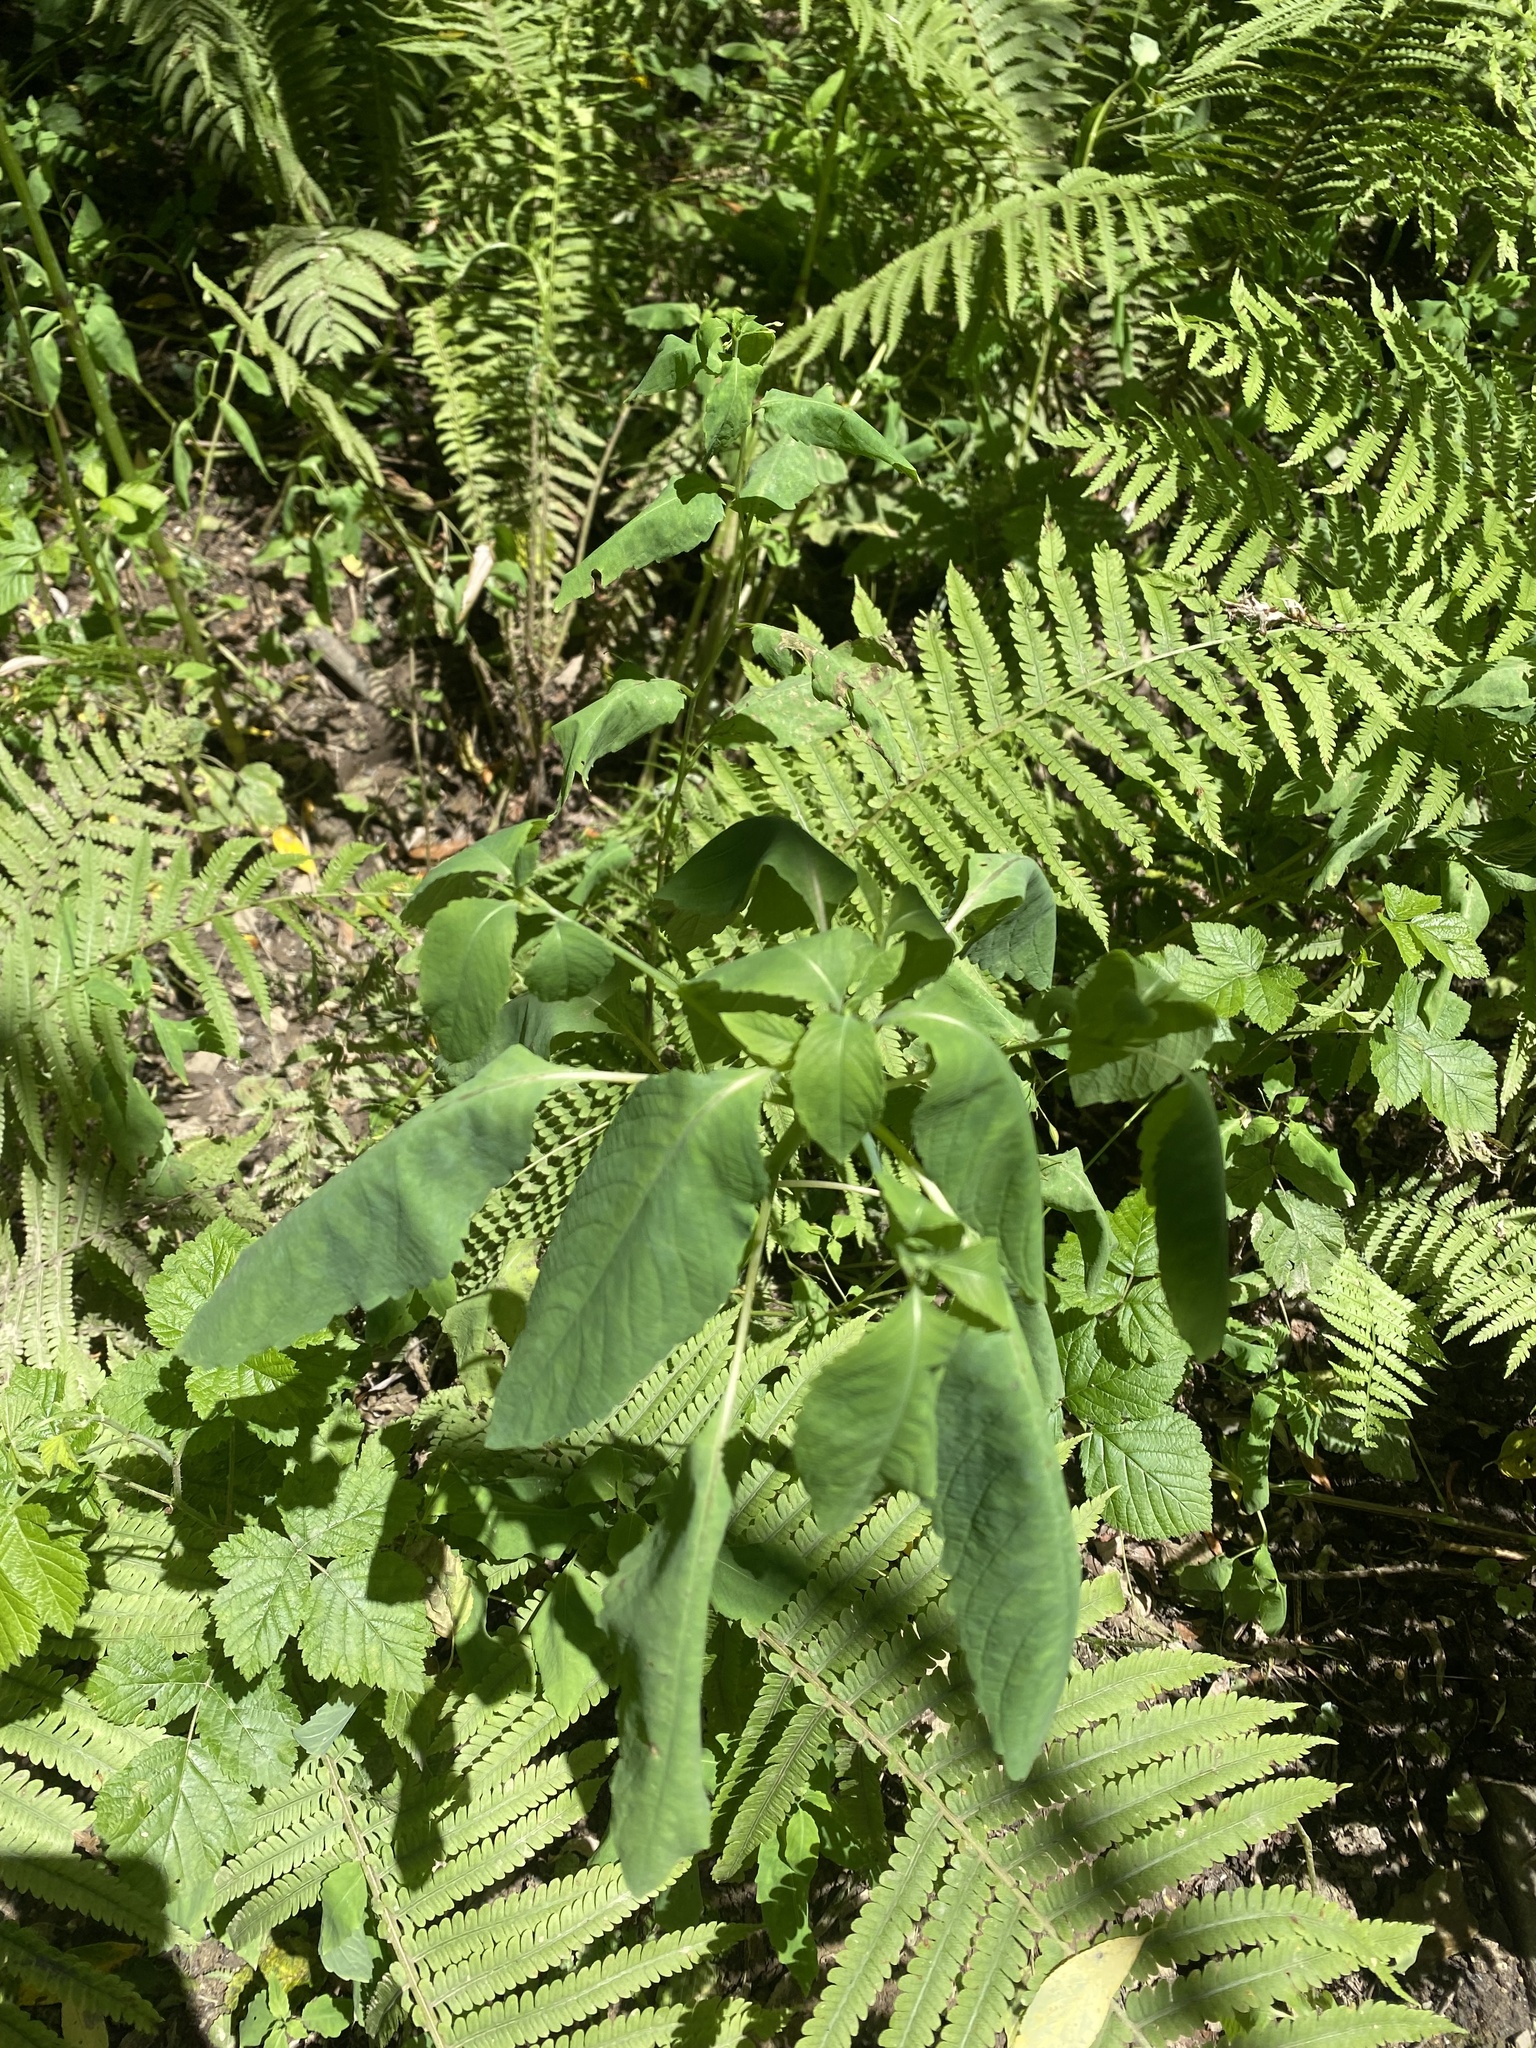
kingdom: Plantae
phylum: Tracheophyta
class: Magnoliopsida
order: Ericales
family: Balsaminaceae
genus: Impatiens
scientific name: Impatiens noli-tangere
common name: Touch-me-not balsam
